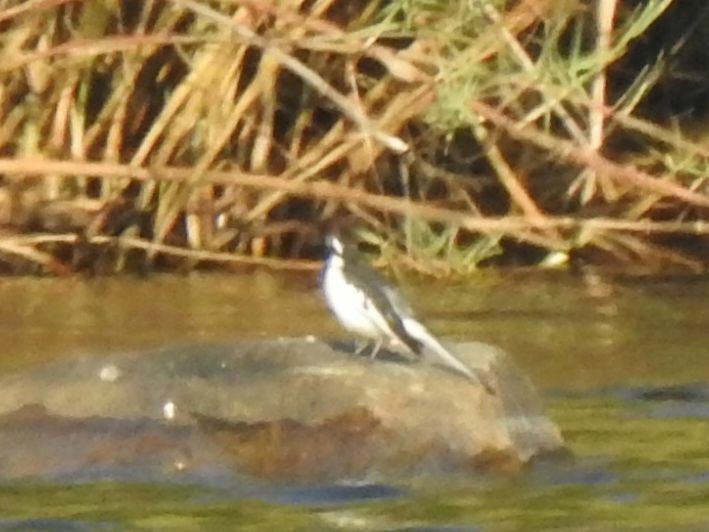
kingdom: Animalia
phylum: Chordata
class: Aves
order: Passeriformes
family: Motacillidae
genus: Motacilla
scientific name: Motacilla aguimp
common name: African pied wagtail
